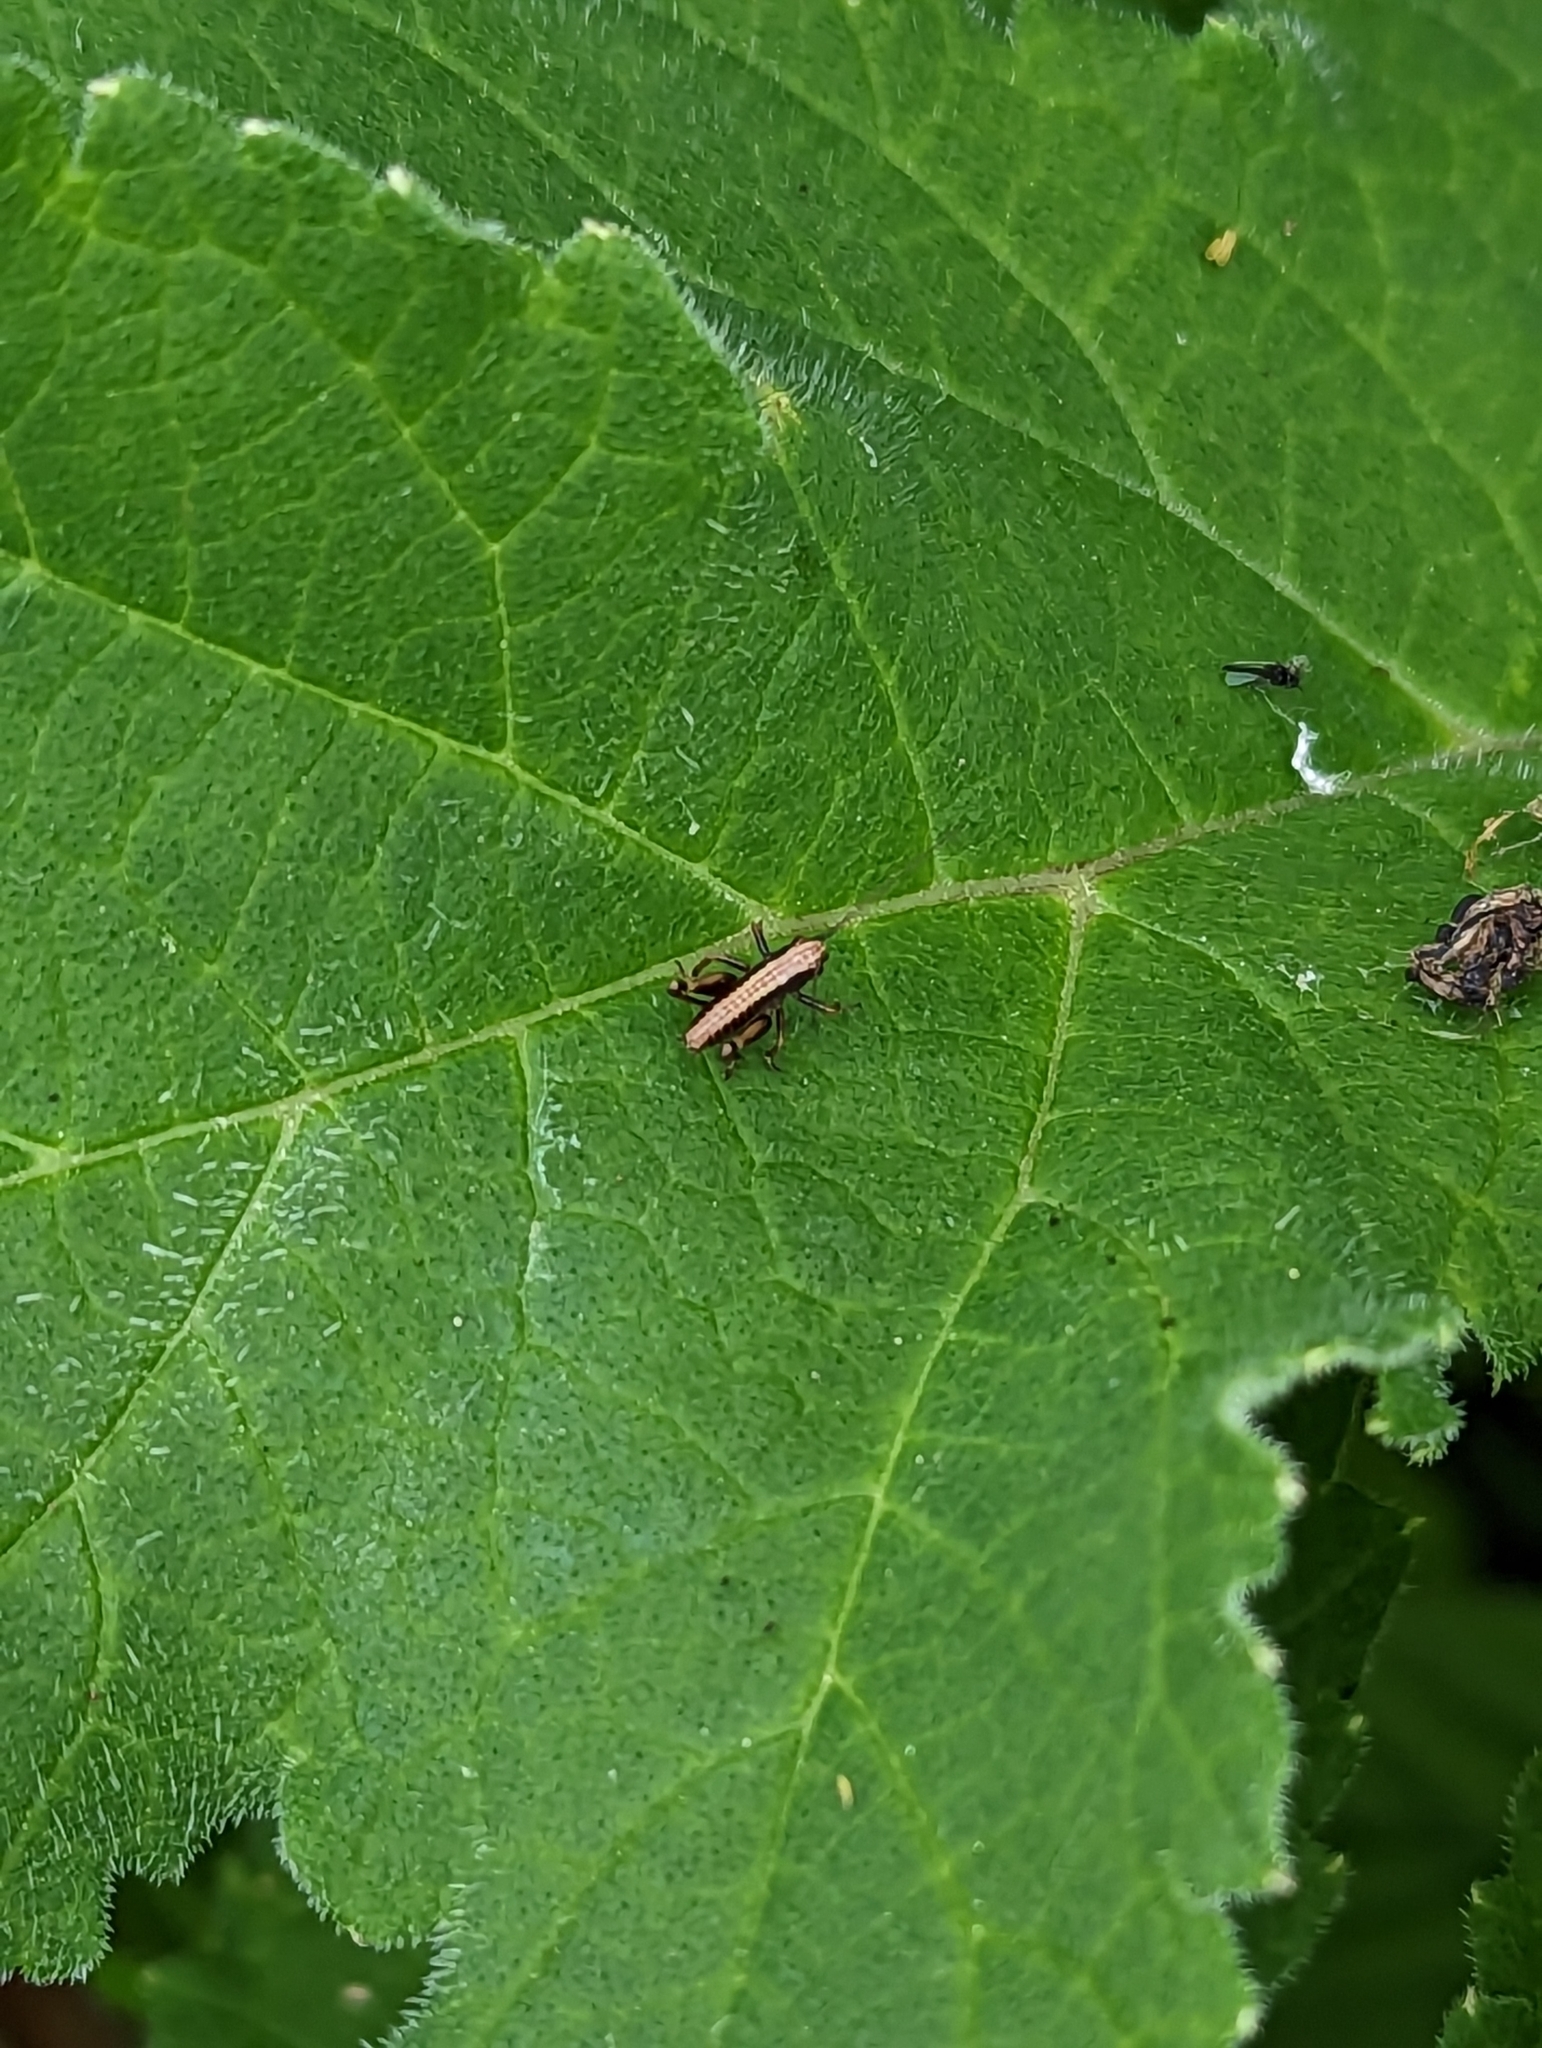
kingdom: Animalia
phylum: Arthropoda
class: Insecta
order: Orthoptera
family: Tettigoniidae
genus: Pholidoptera
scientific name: Pholidoptera griseoaptera
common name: Dark bush-cricket
